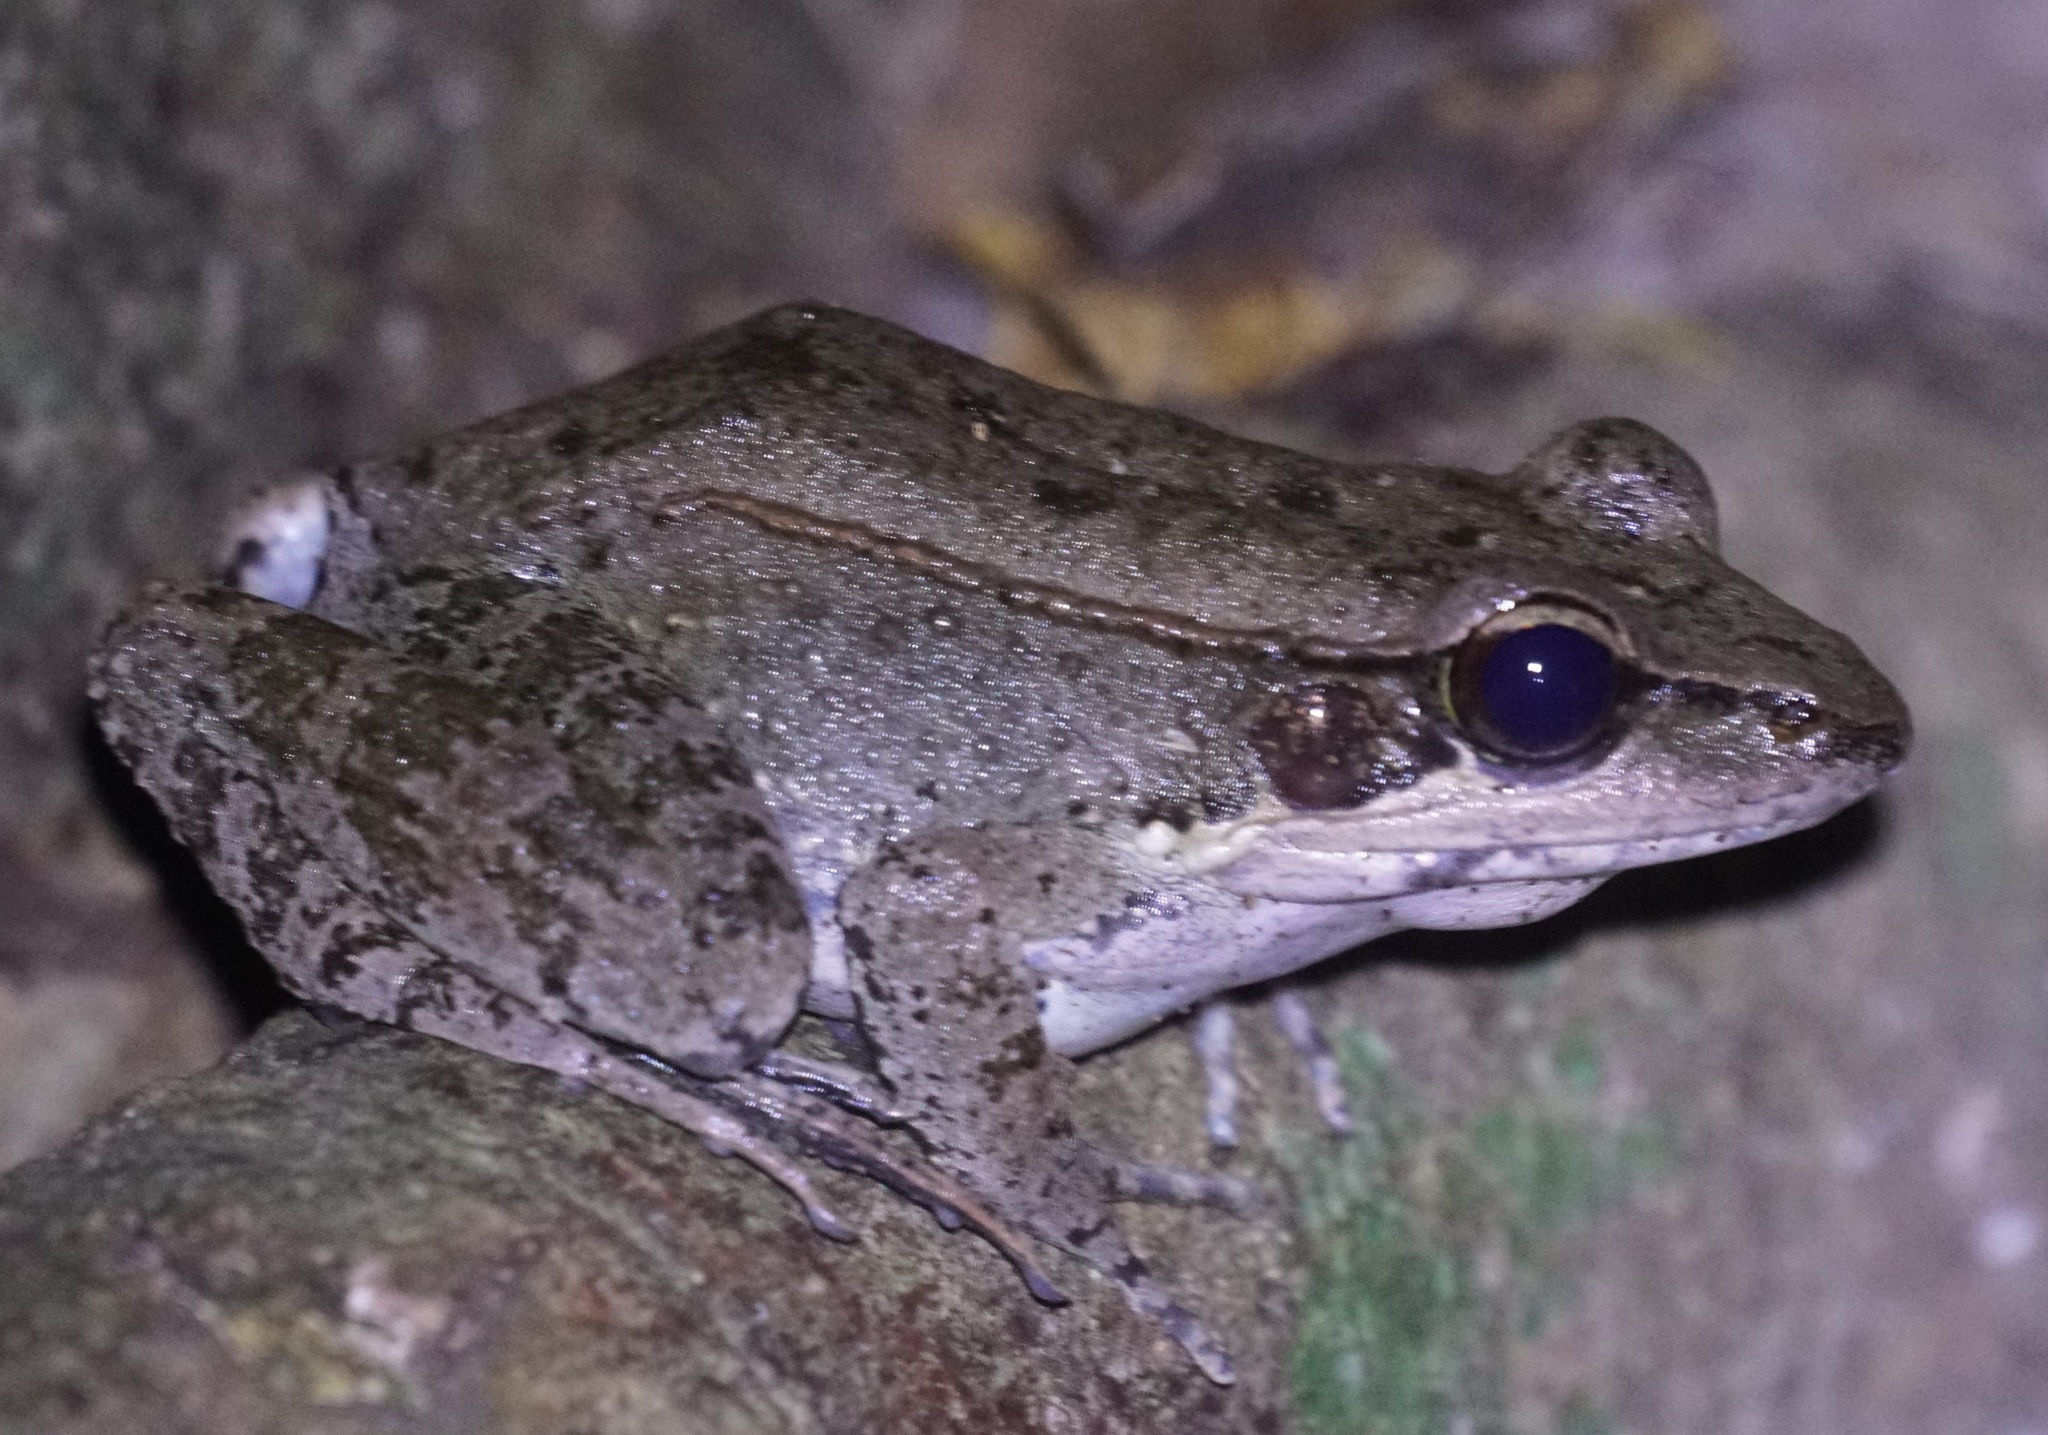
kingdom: Animalia
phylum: Chordata
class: Amphibia
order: Anura
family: Ranidae
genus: Papurana
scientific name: Papurana daemeli
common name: Arhem rana
